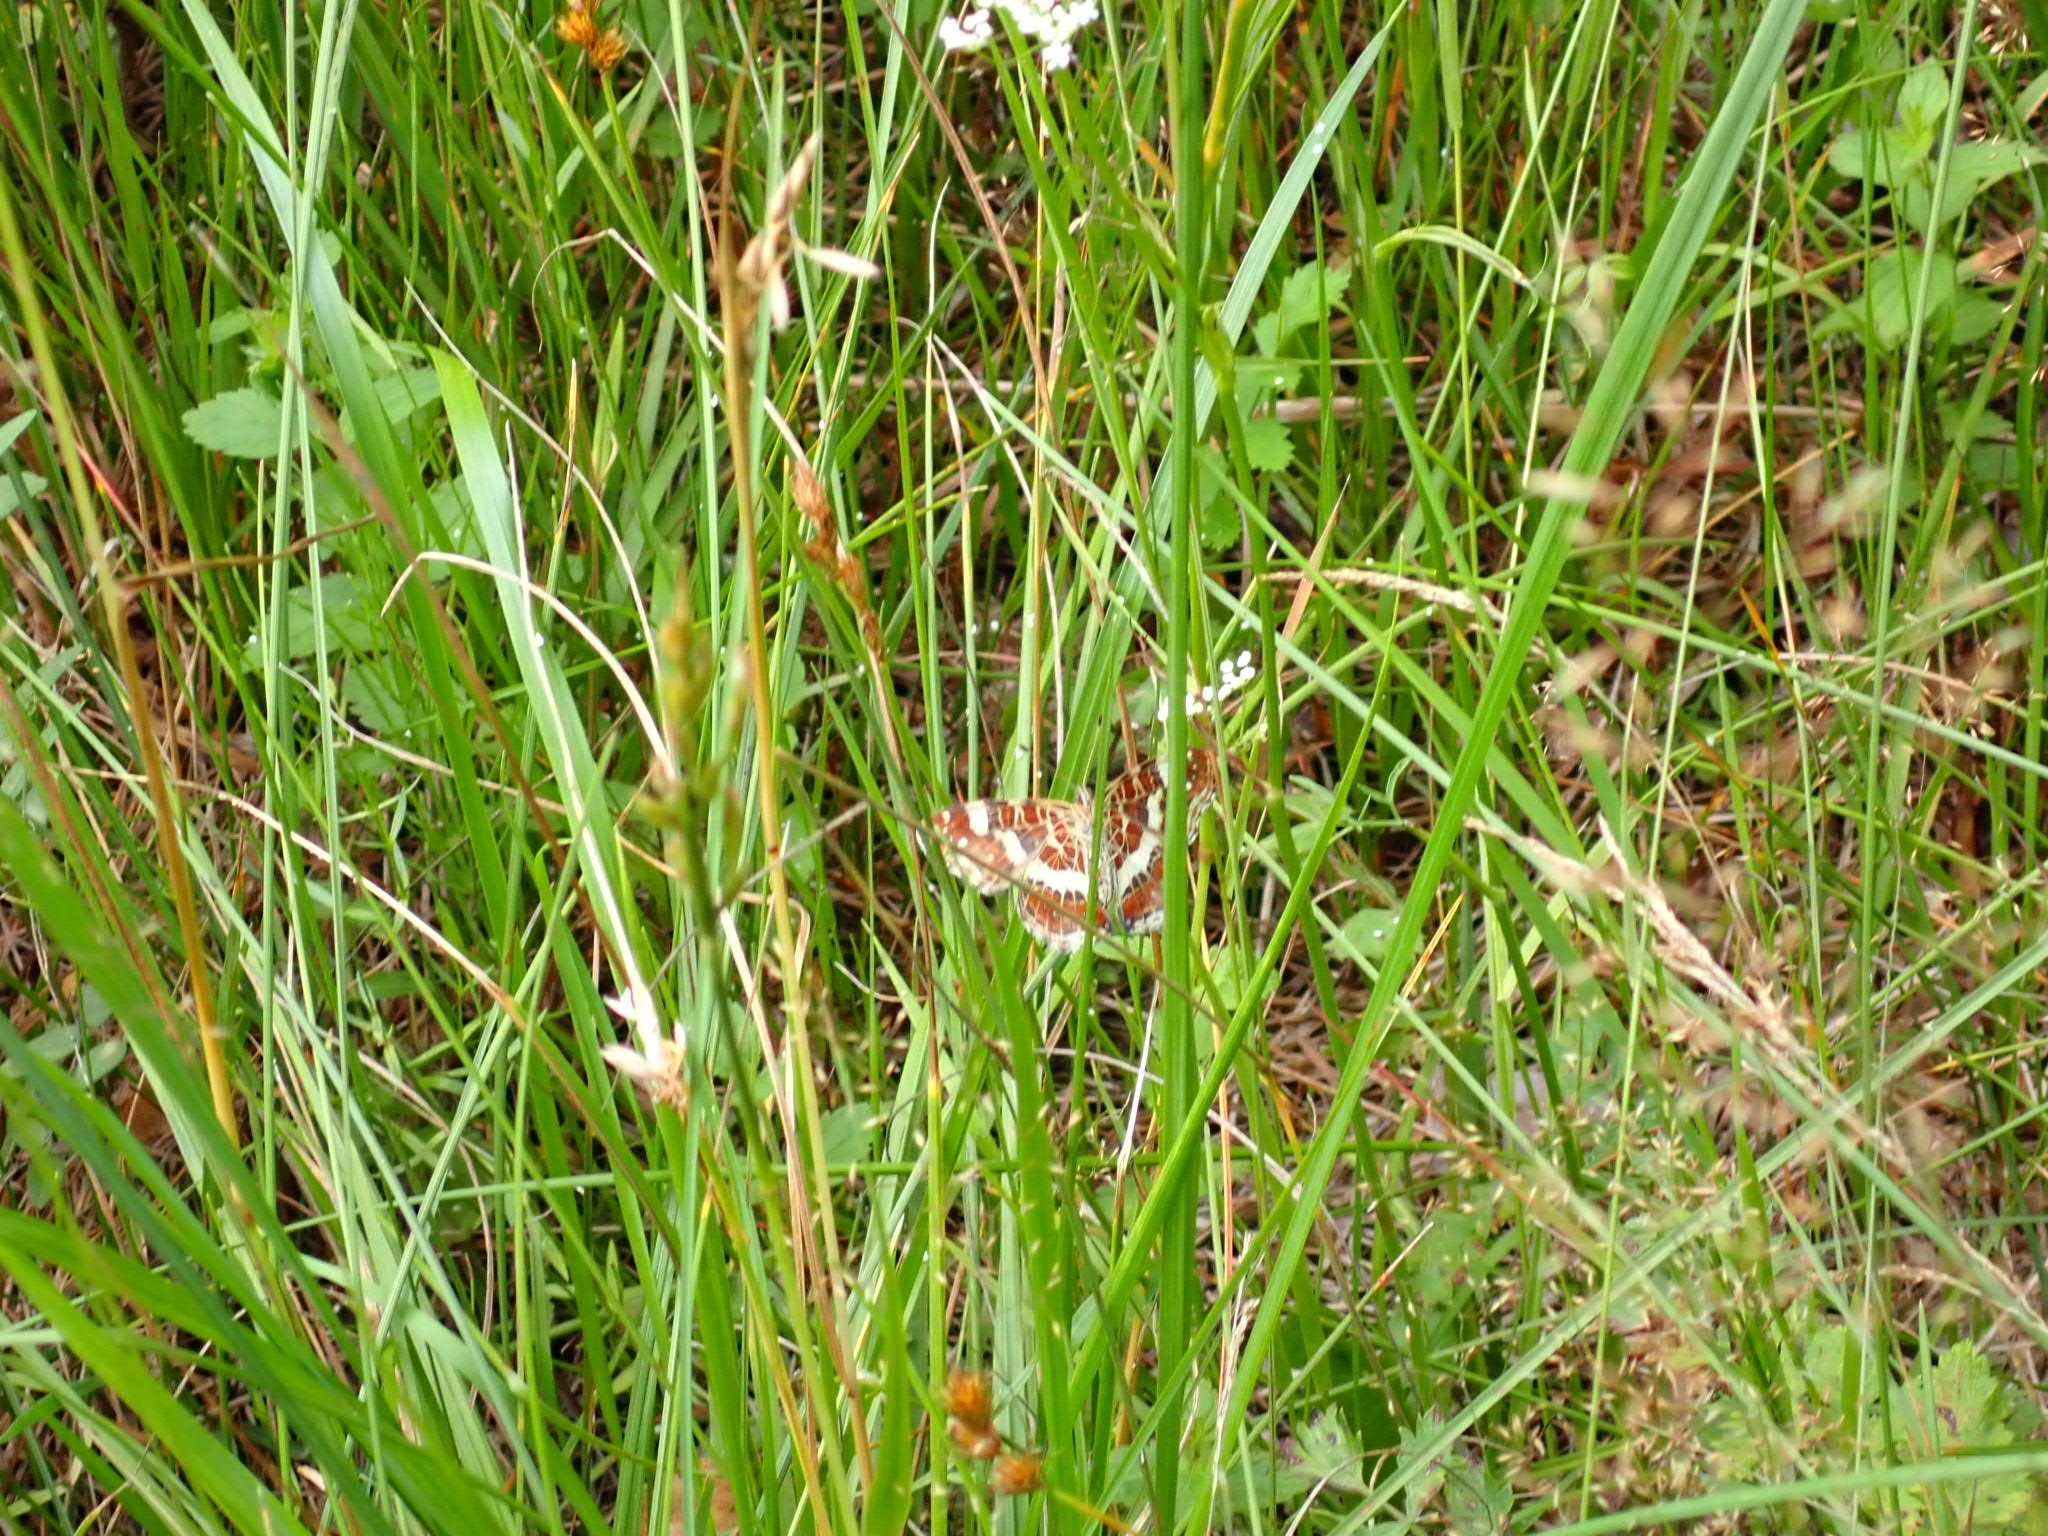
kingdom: Animalia
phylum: Arthropoda
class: Insecta
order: Lepidoptera
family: Nymphalidae
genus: Araschnia
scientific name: Araschnia levana
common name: Map butterfly
